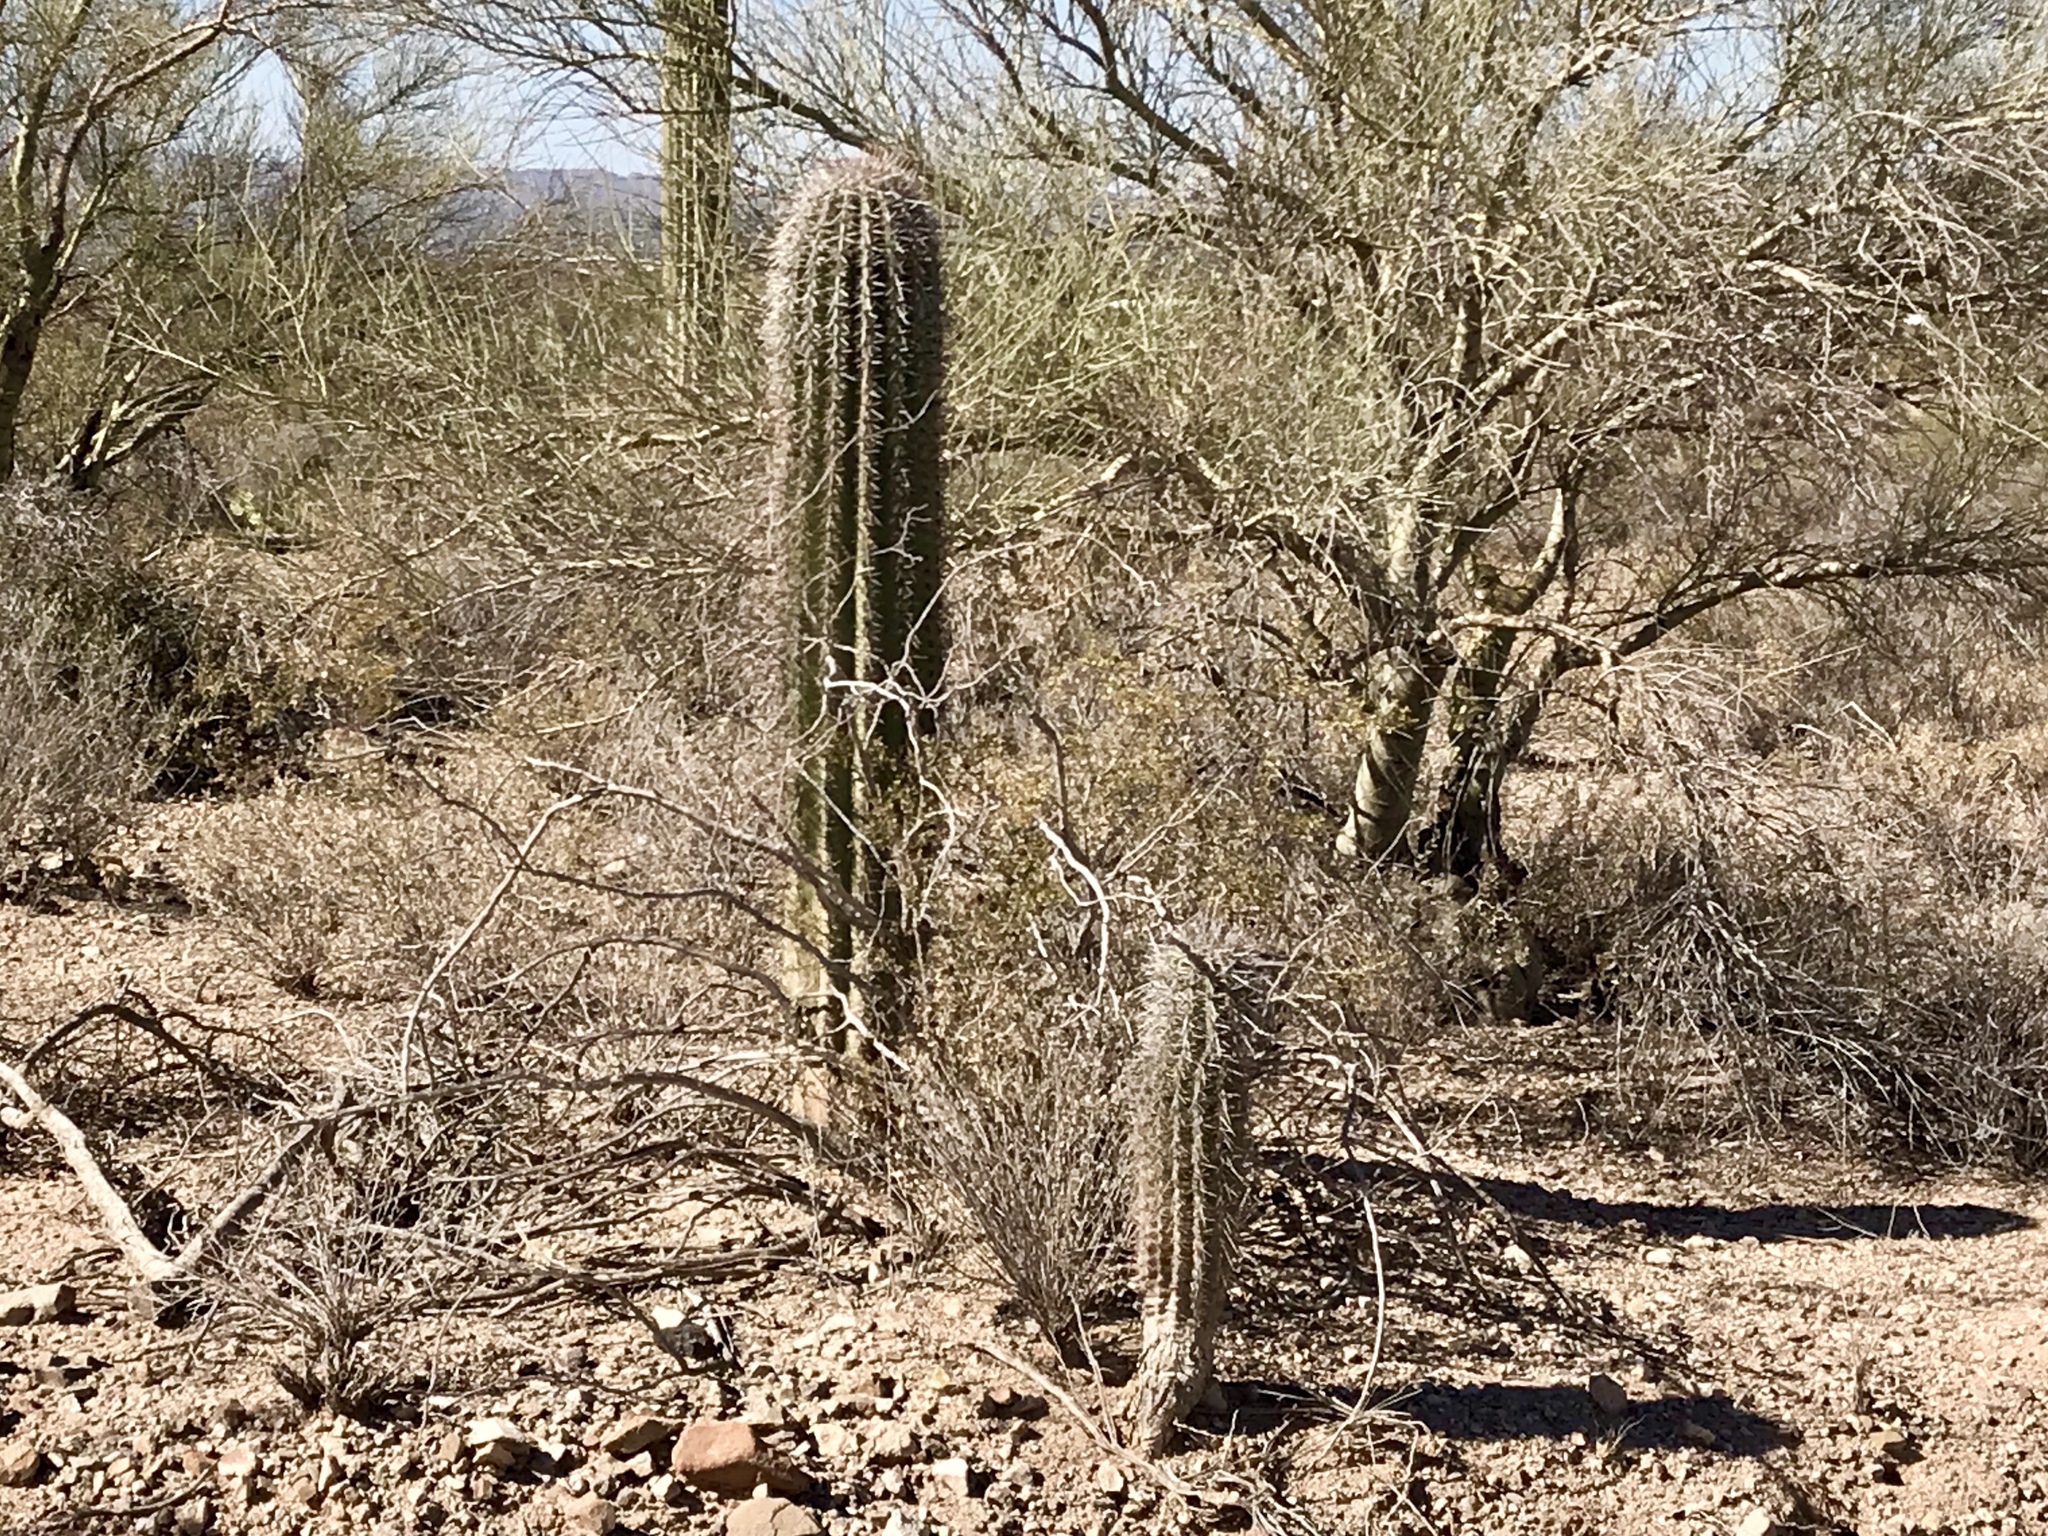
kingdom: Plantae
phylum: Tracheophyta
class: Magnoliopsida
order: Caryophyllales
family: Cactaceae
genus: Carnegiea
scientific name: Carnegiea gigantea
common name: Saguaro
